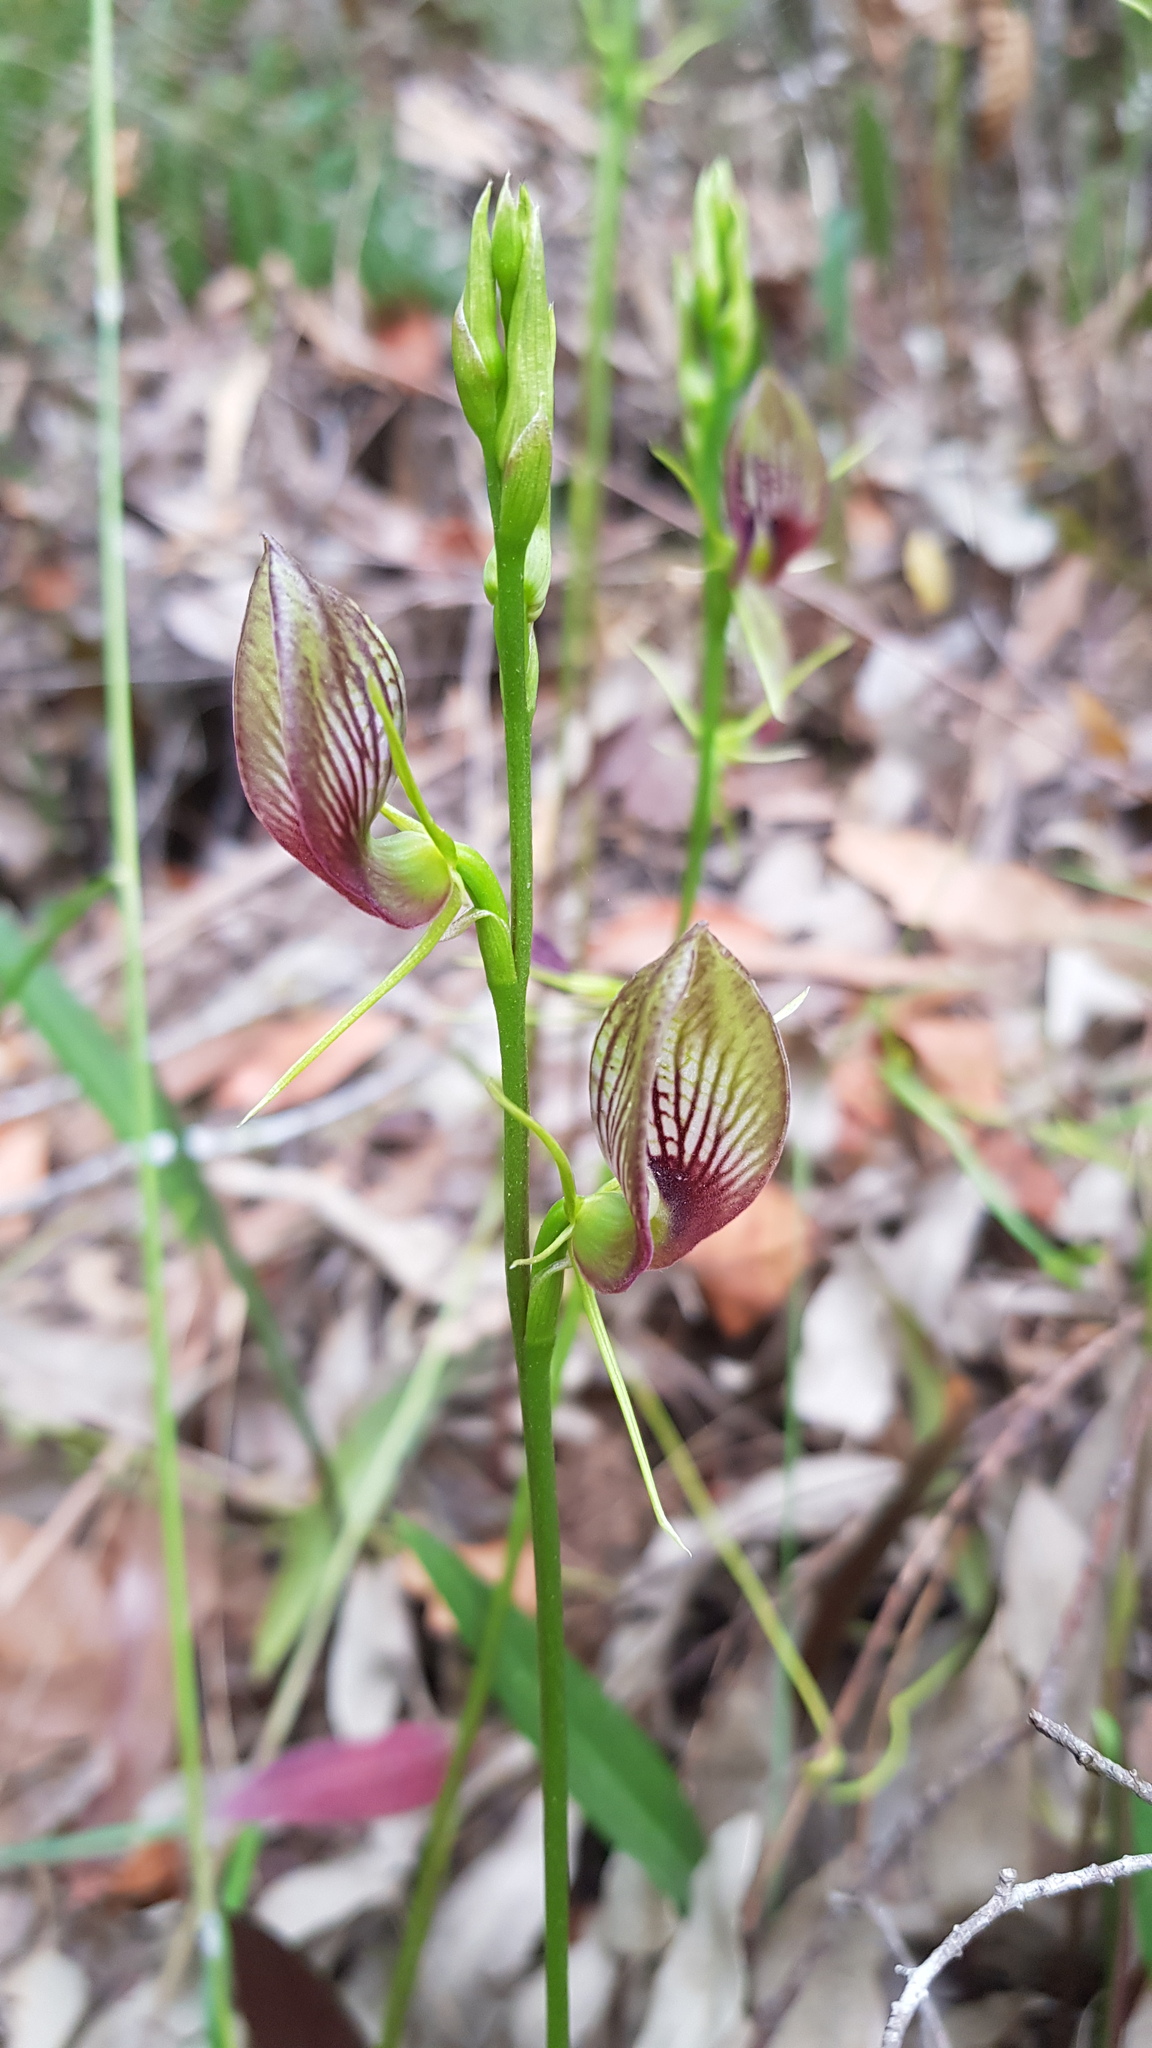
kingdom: Plantae
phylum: Tracheophyta
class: Liliopsida
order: Asparagales
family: Orchidaceae
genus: Cryptostylis
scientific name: Cryptostylis erecta
